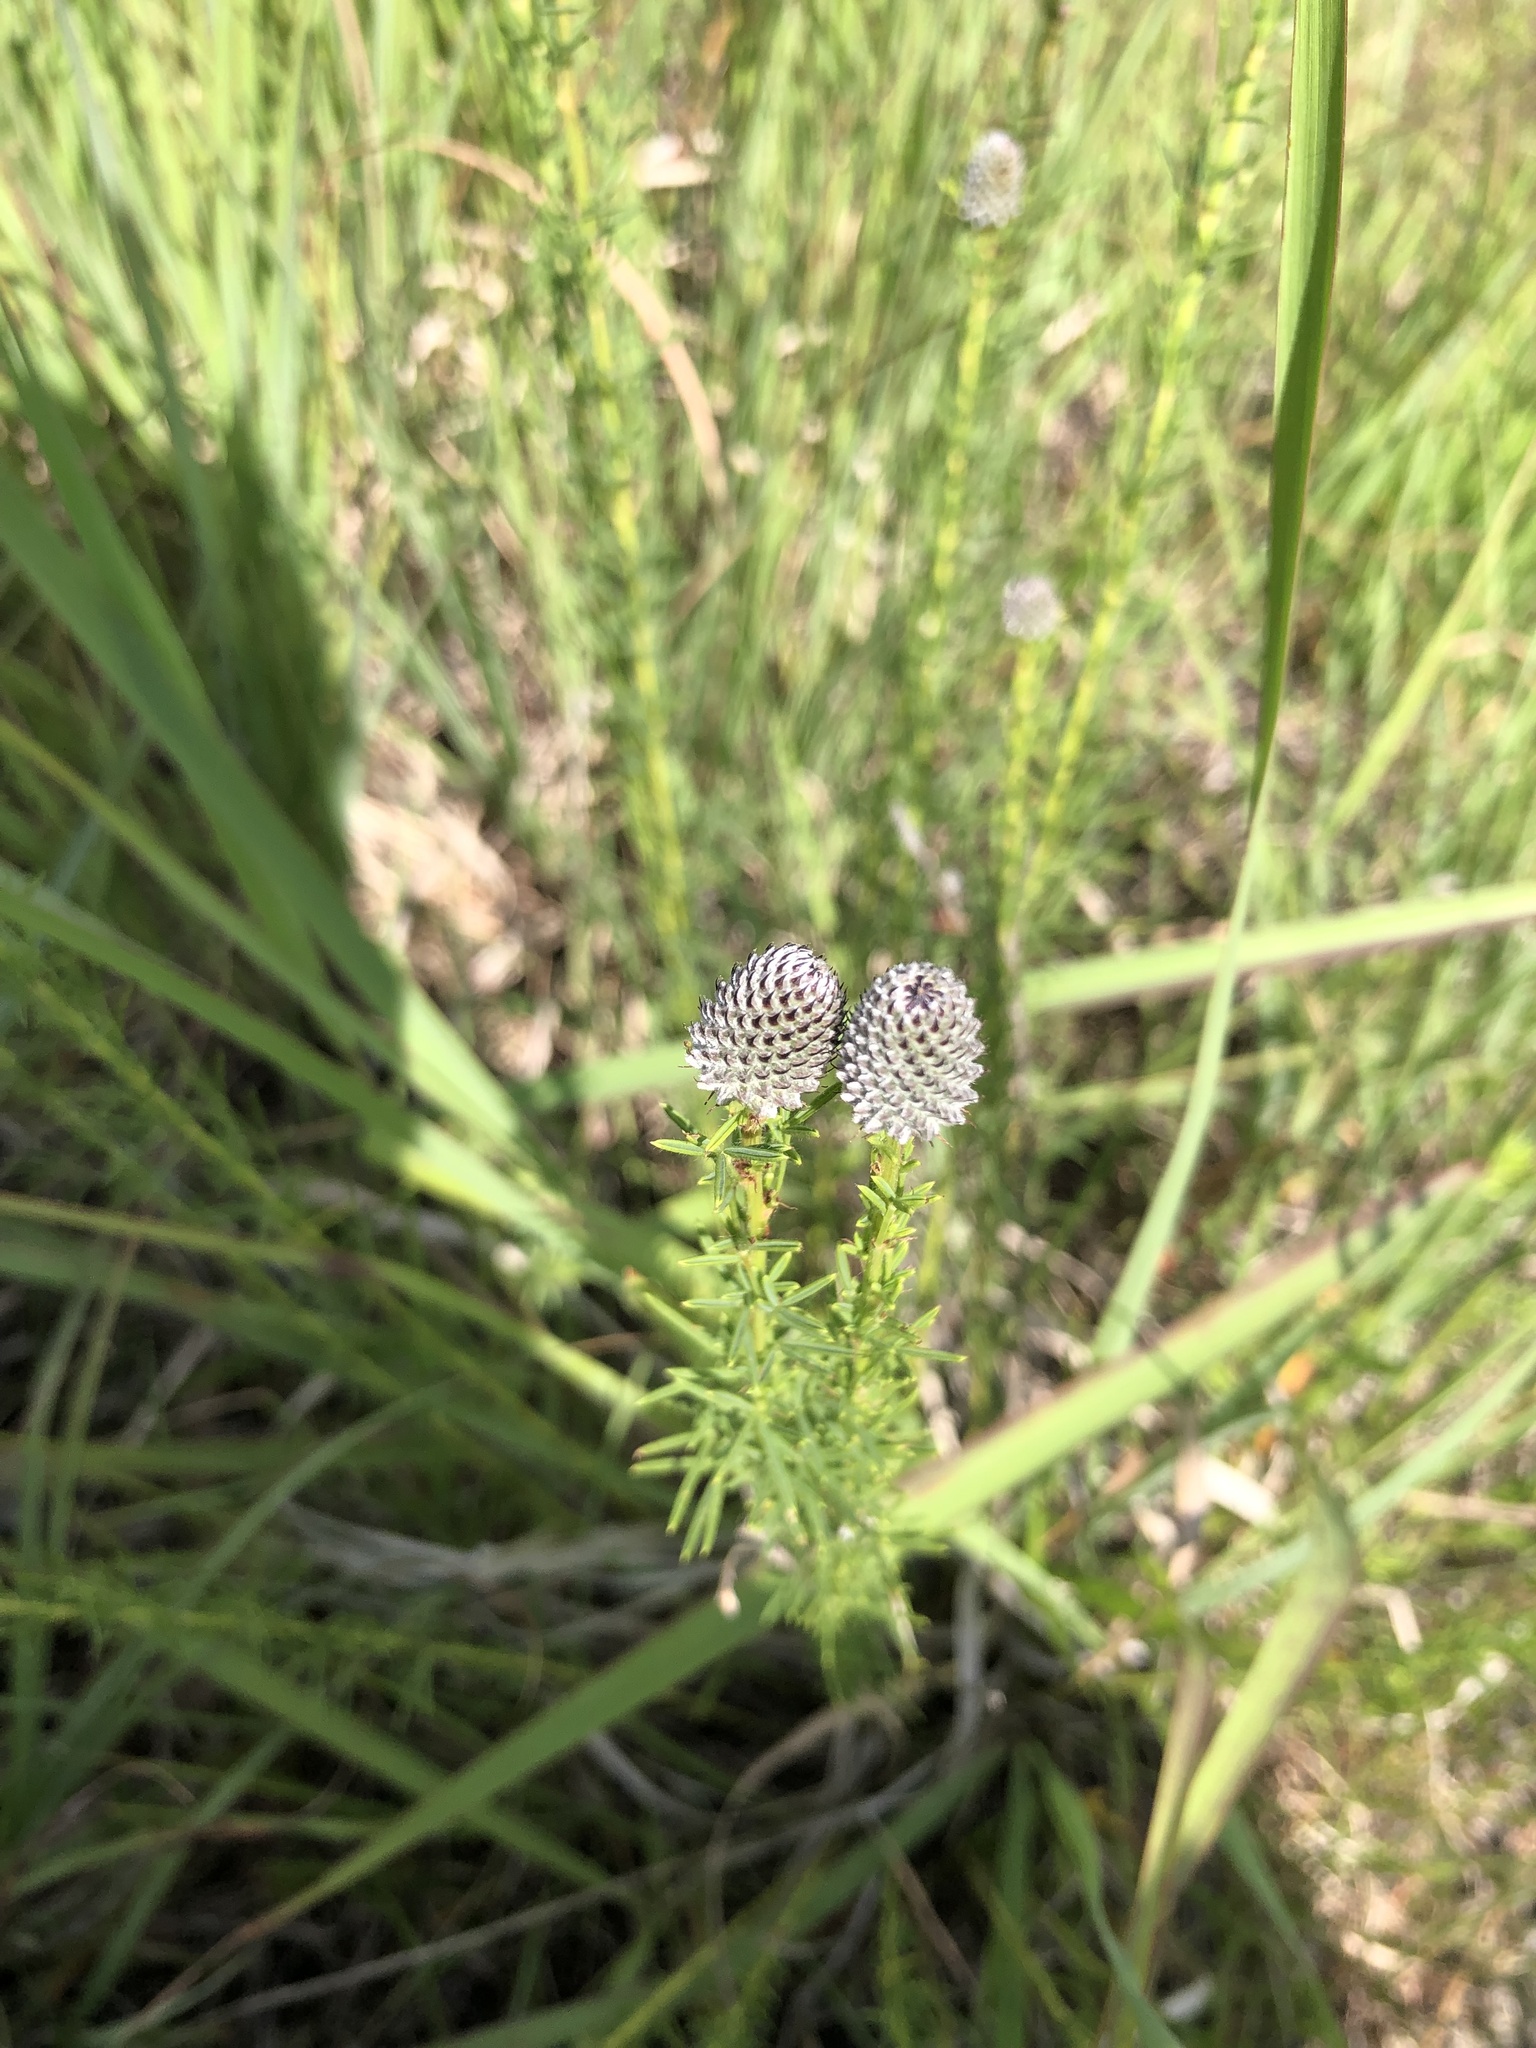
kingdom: Plantae
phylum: Tracheophyta
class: Magnoliopsida
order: Fabales
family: Fabaceae
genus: Dalea
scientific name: Dalea purpurea
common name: Purple prairie-clover
